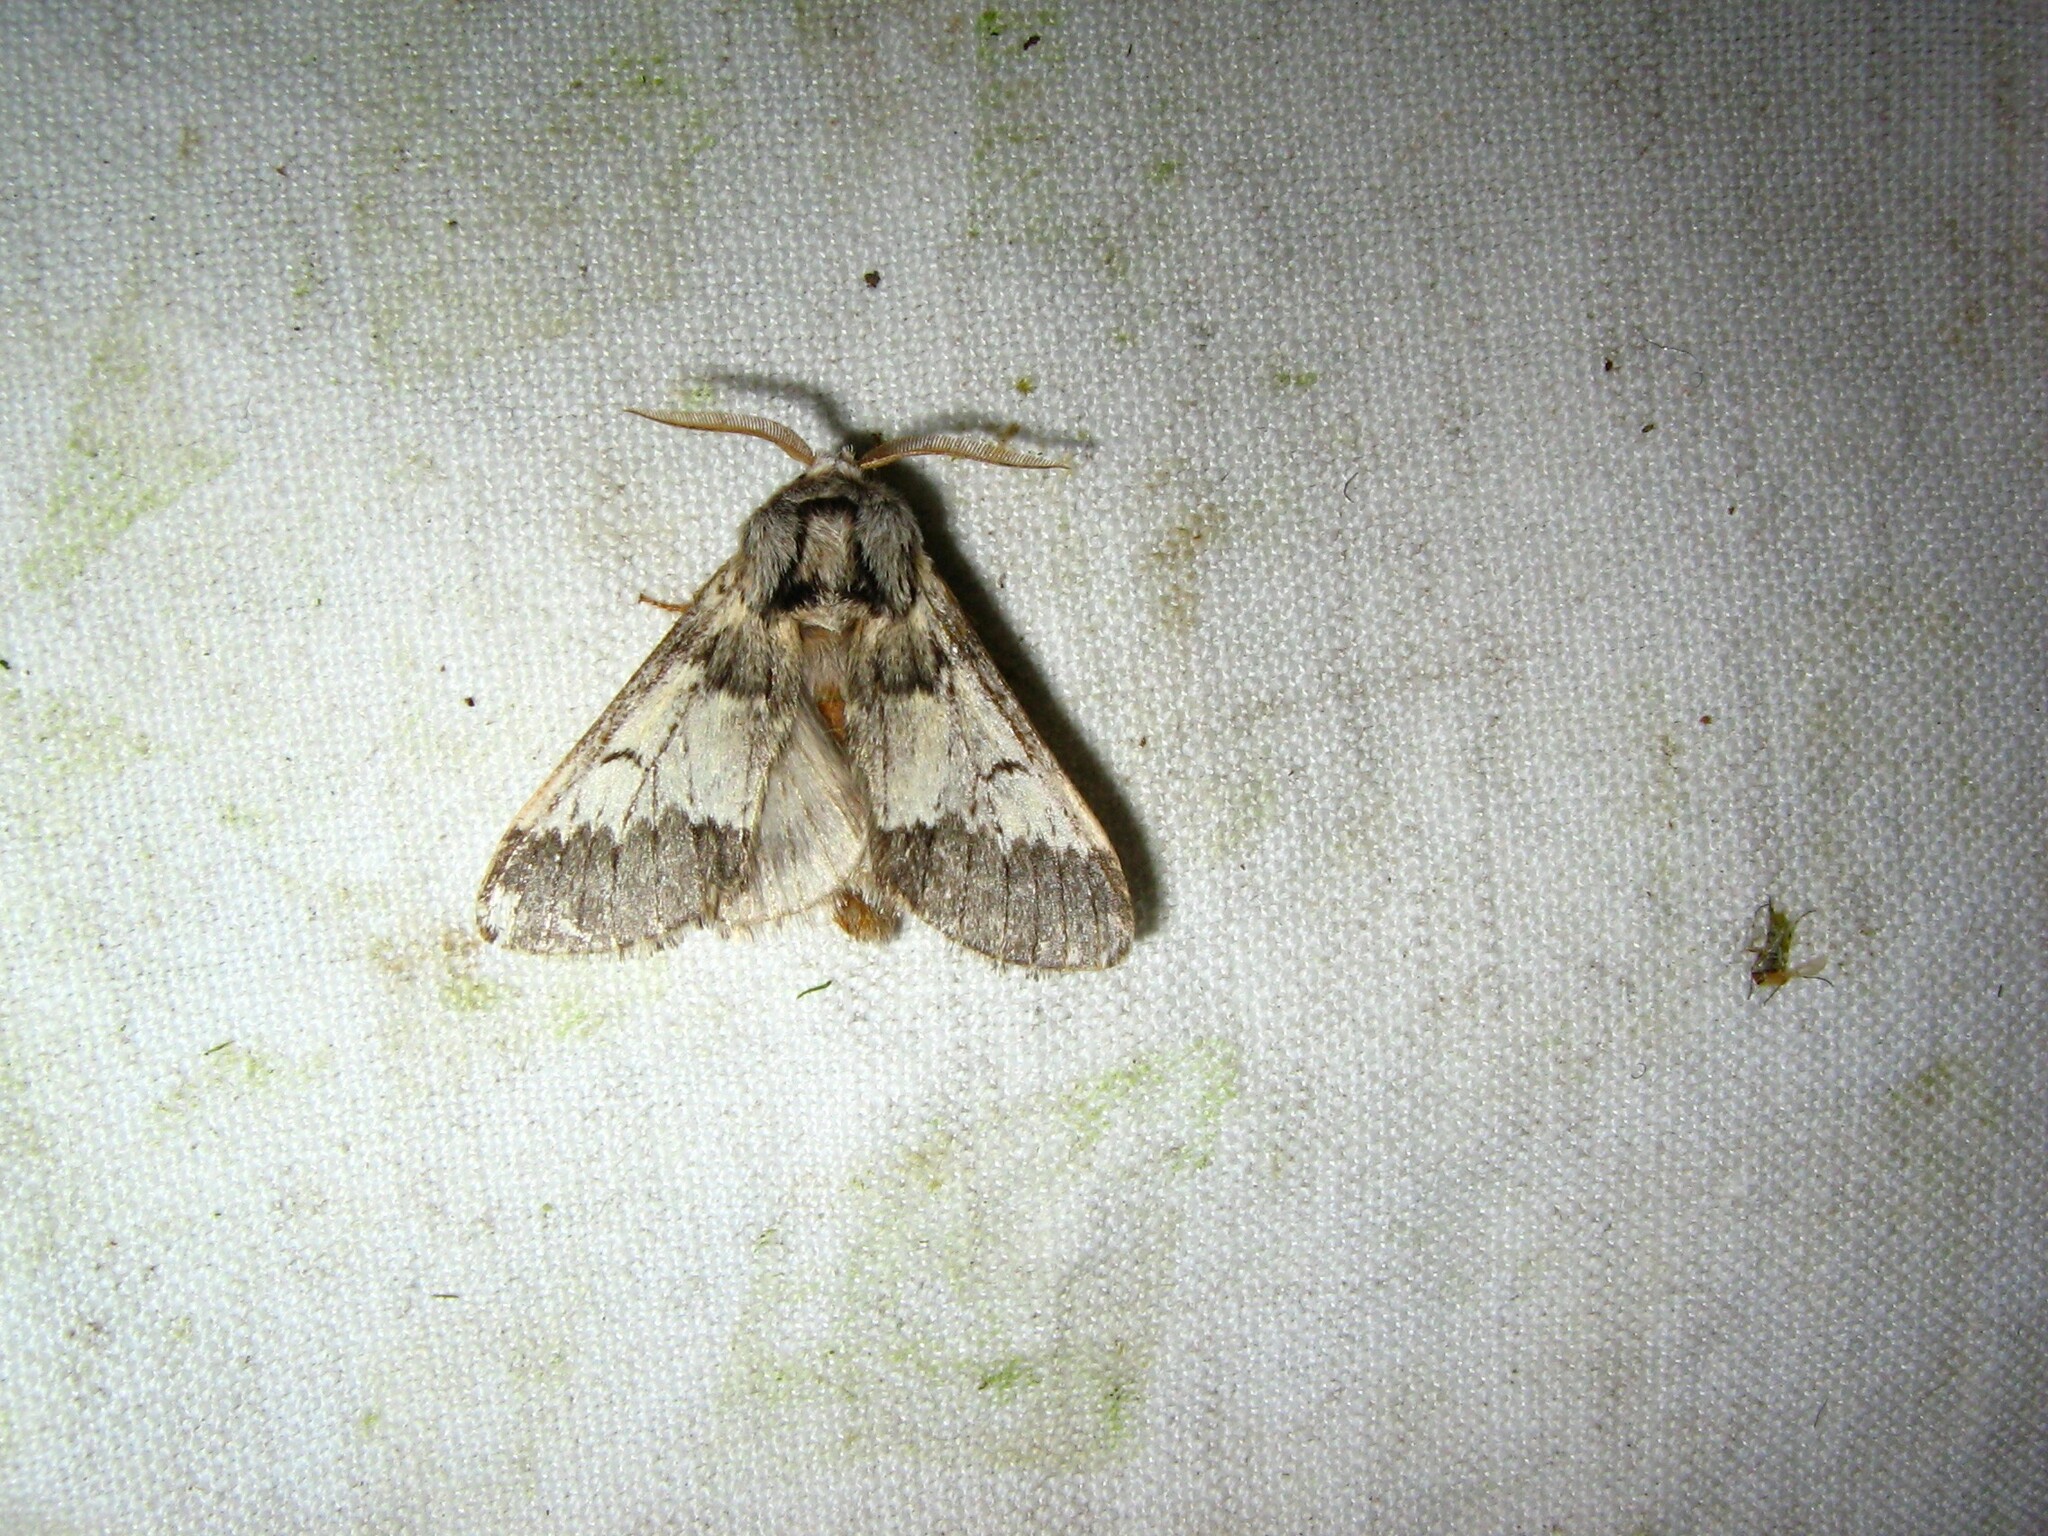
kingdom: Animalia
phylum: Arthropoda
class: Insecta
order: Lepidoptera
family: Notodontidae
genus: Drymonia
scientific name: Drymonia ruficornis
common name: Lunar marbled brown
